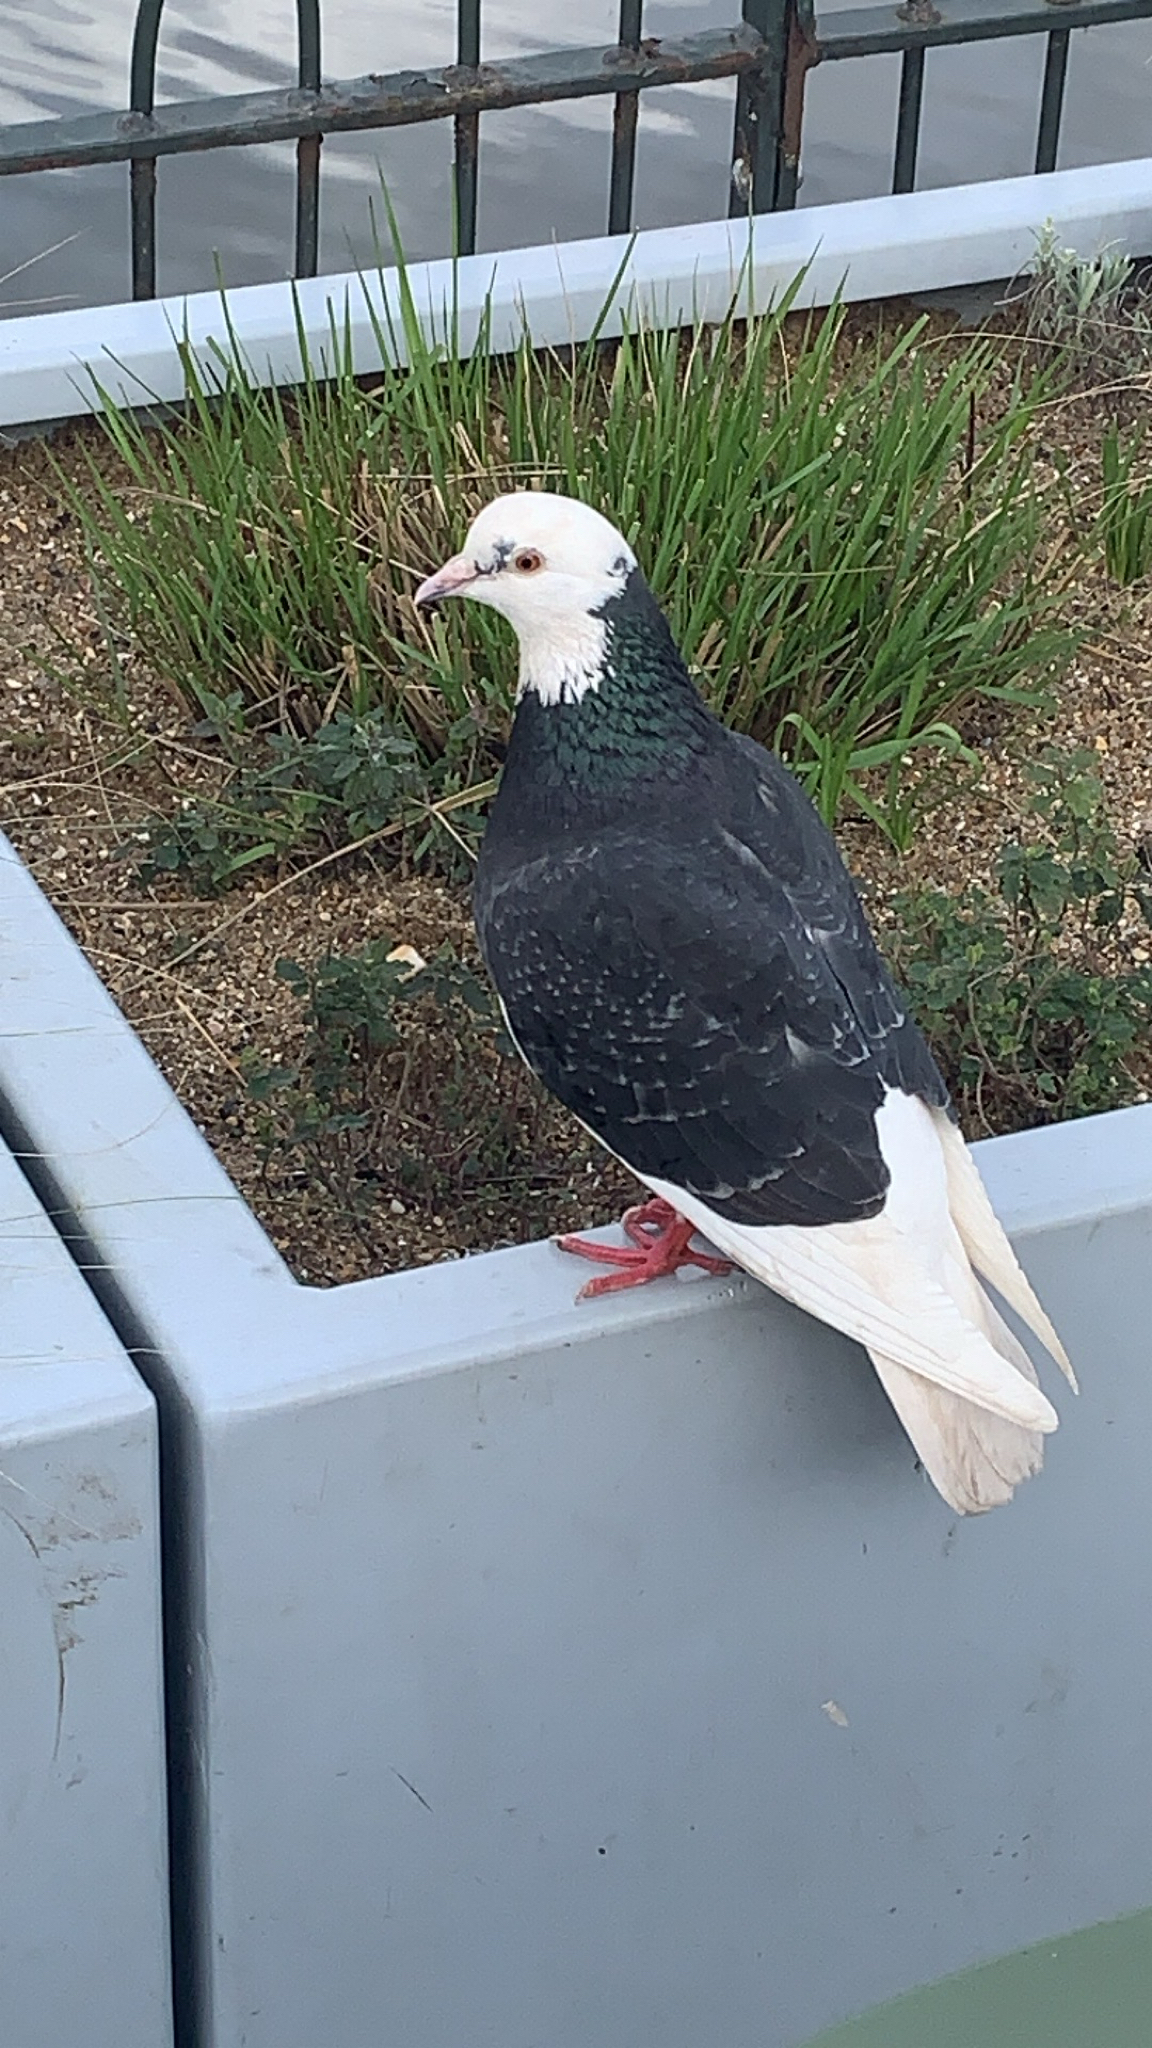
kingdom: Animalia
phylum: Chordata
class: Aves
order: Columbiformes
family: Columbidae
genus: Columba
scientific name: Columba livia
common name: Rock pigeon
